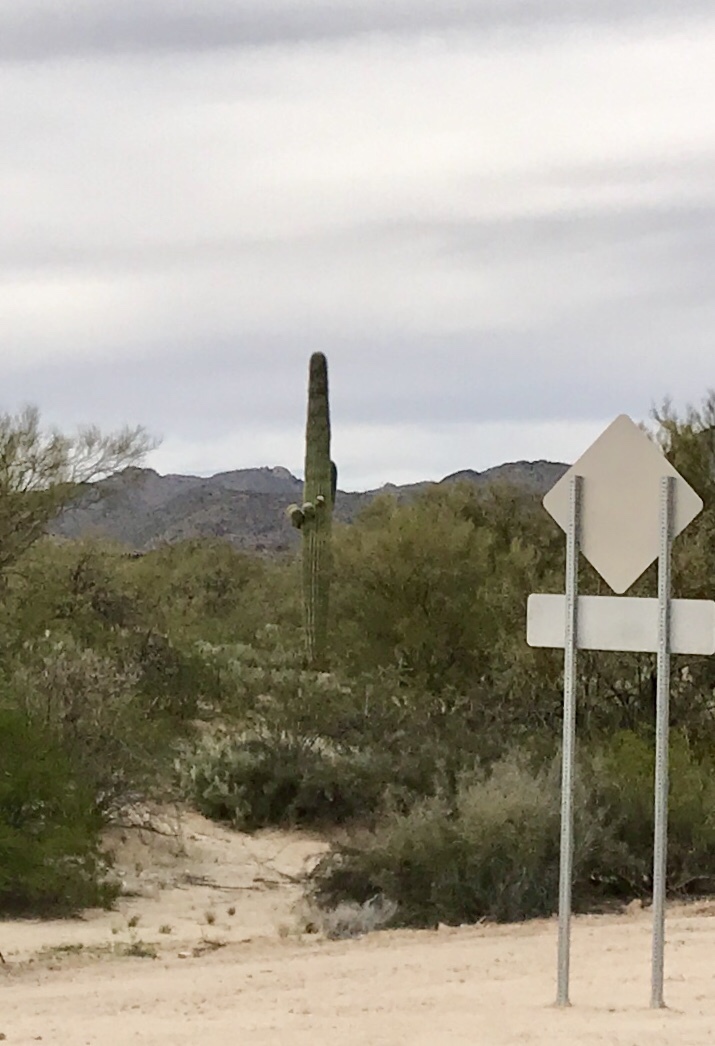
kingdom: Plantae
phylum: Tracheophyta
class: Magnoliopsida
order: Caryophyllales
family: Cactaceae
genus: Carnegiea
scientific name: Carnegiea gigantea
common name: Saguaro
